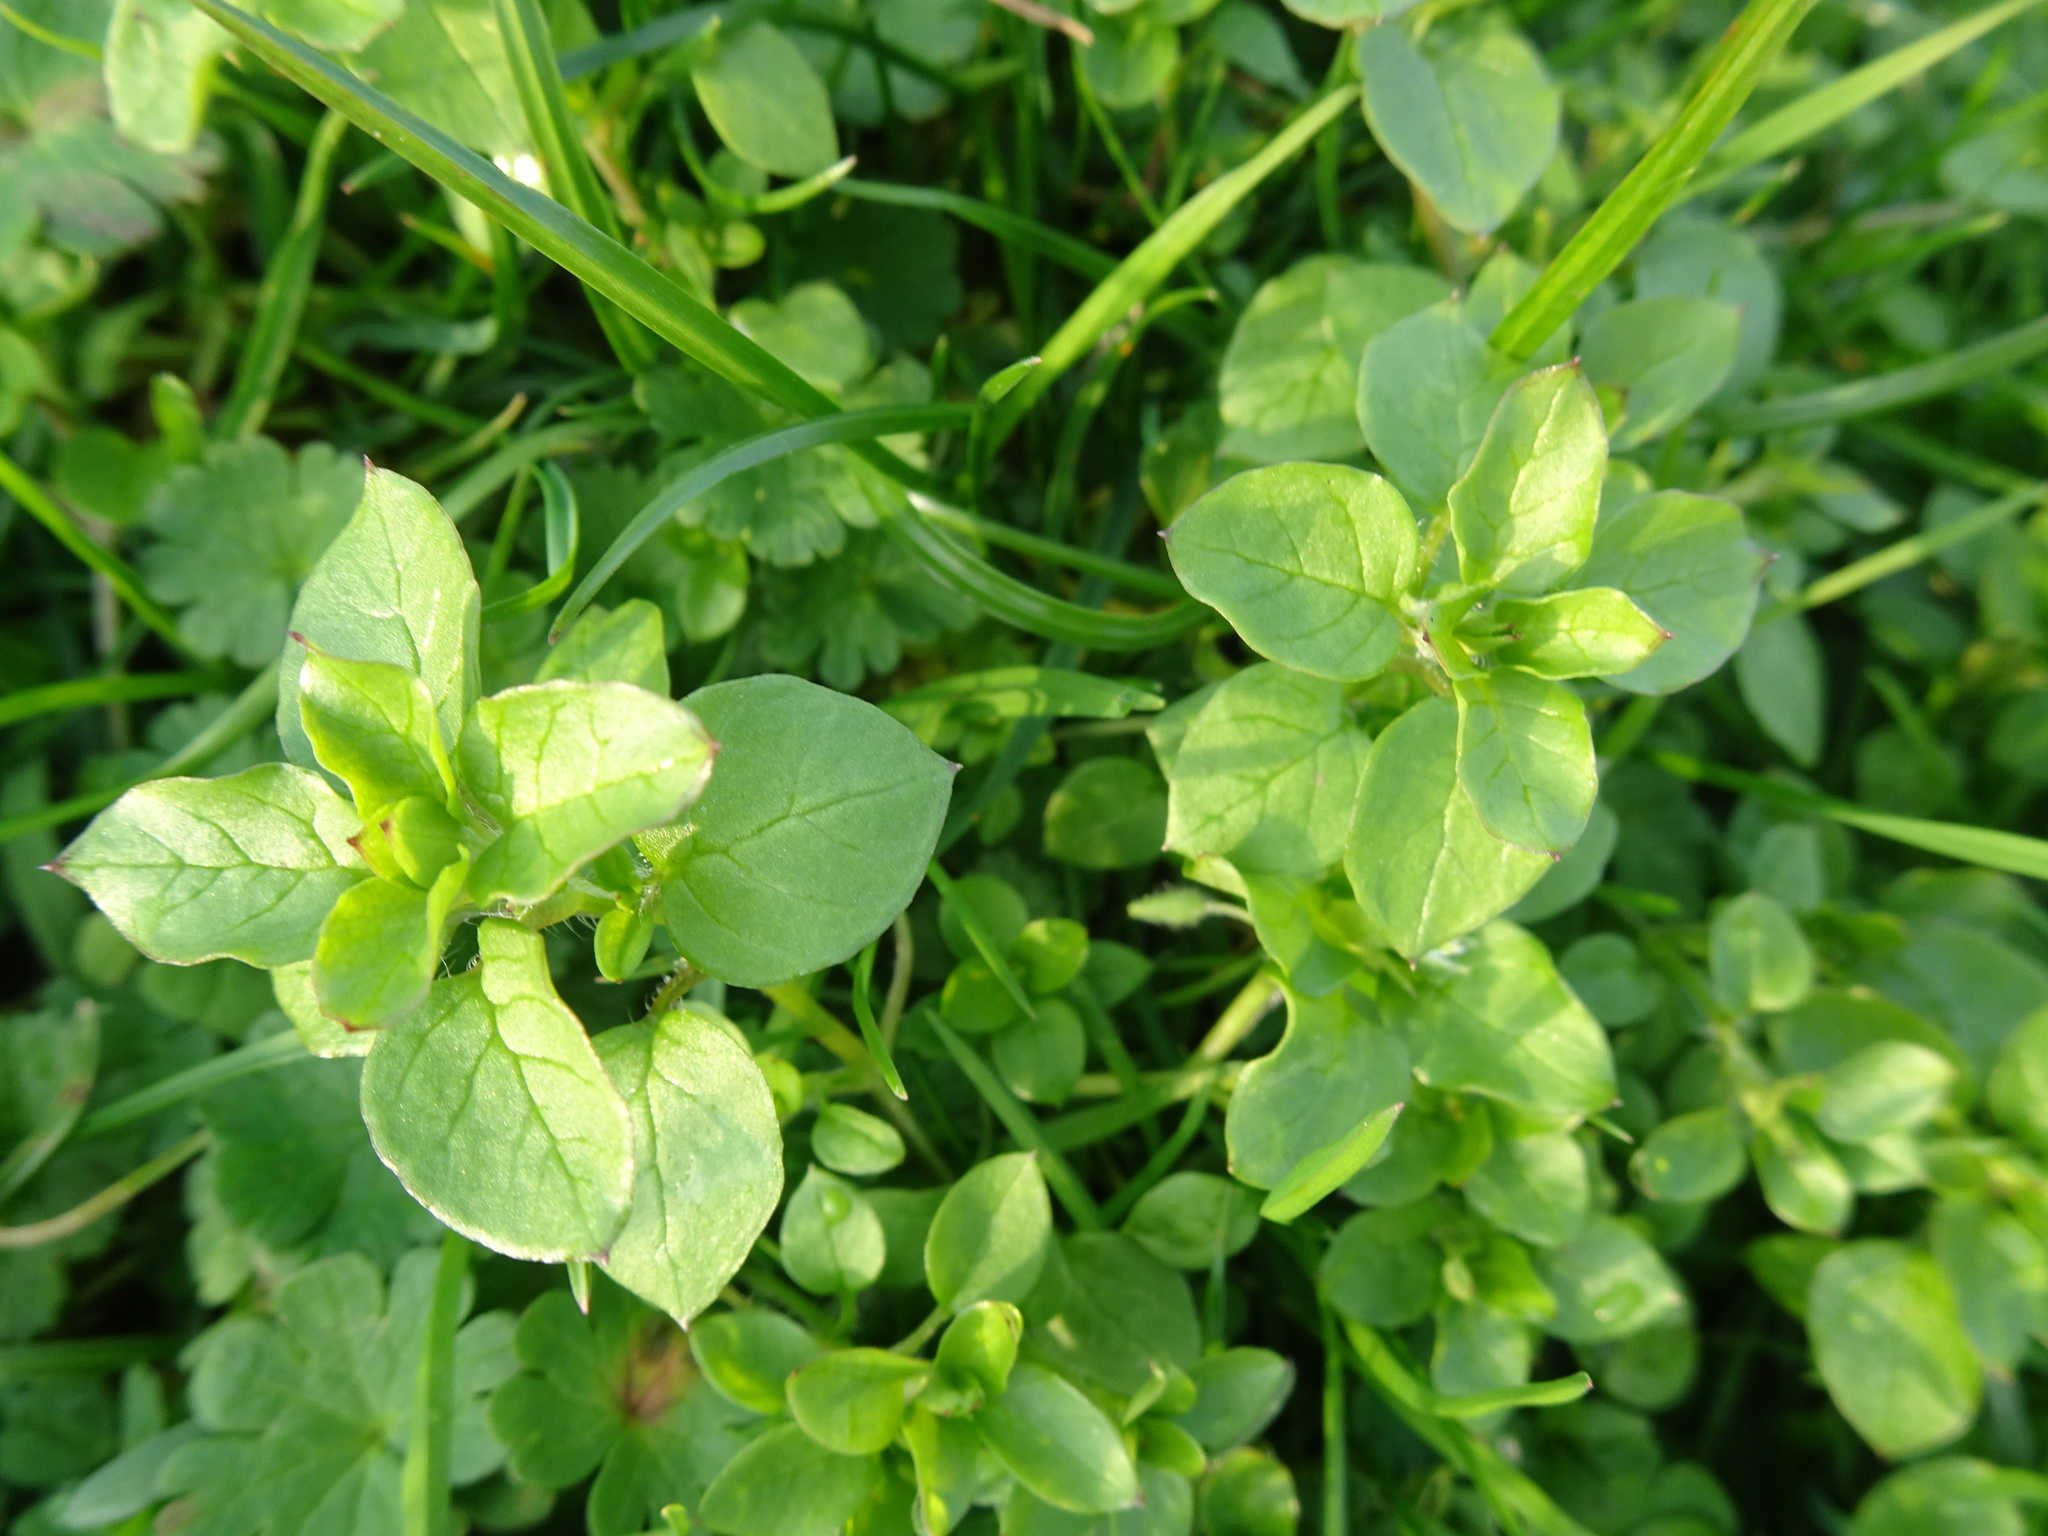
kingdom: Plantae
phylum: Tracheophyta
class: Magnoliopsida
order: Caryophyllales
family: Caryophyllaceae
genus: Stellaria
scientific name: Stellaria media
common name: Common chickweed
